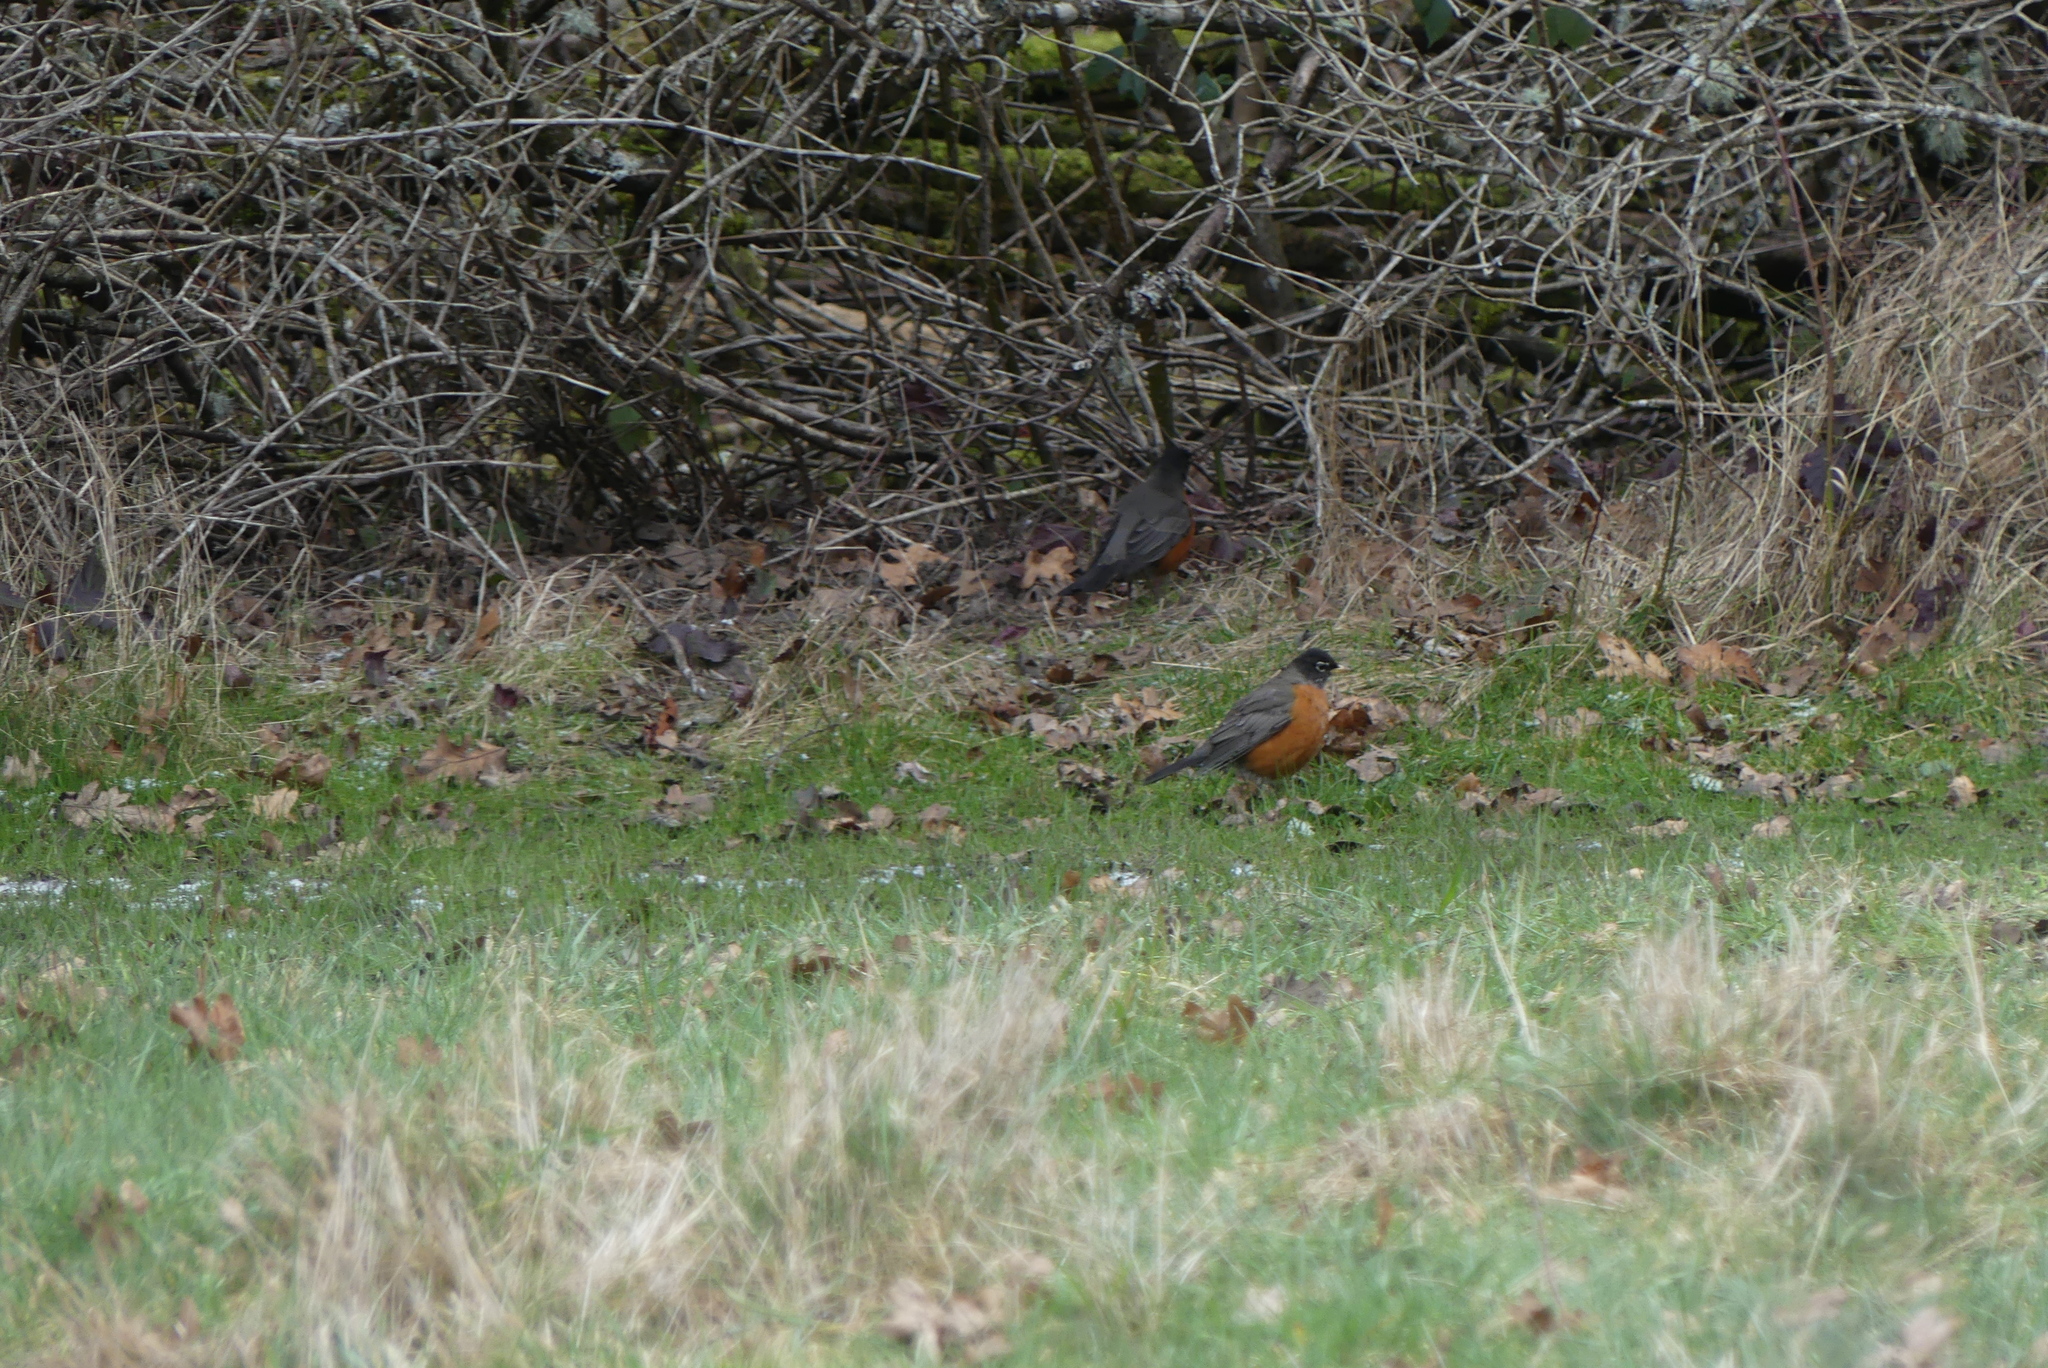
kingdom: Animalia
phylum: Chordata
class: Aves
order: Passeriformes
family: Turdidae
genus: Turdus
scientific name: Turdus migratorius
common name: American robin
